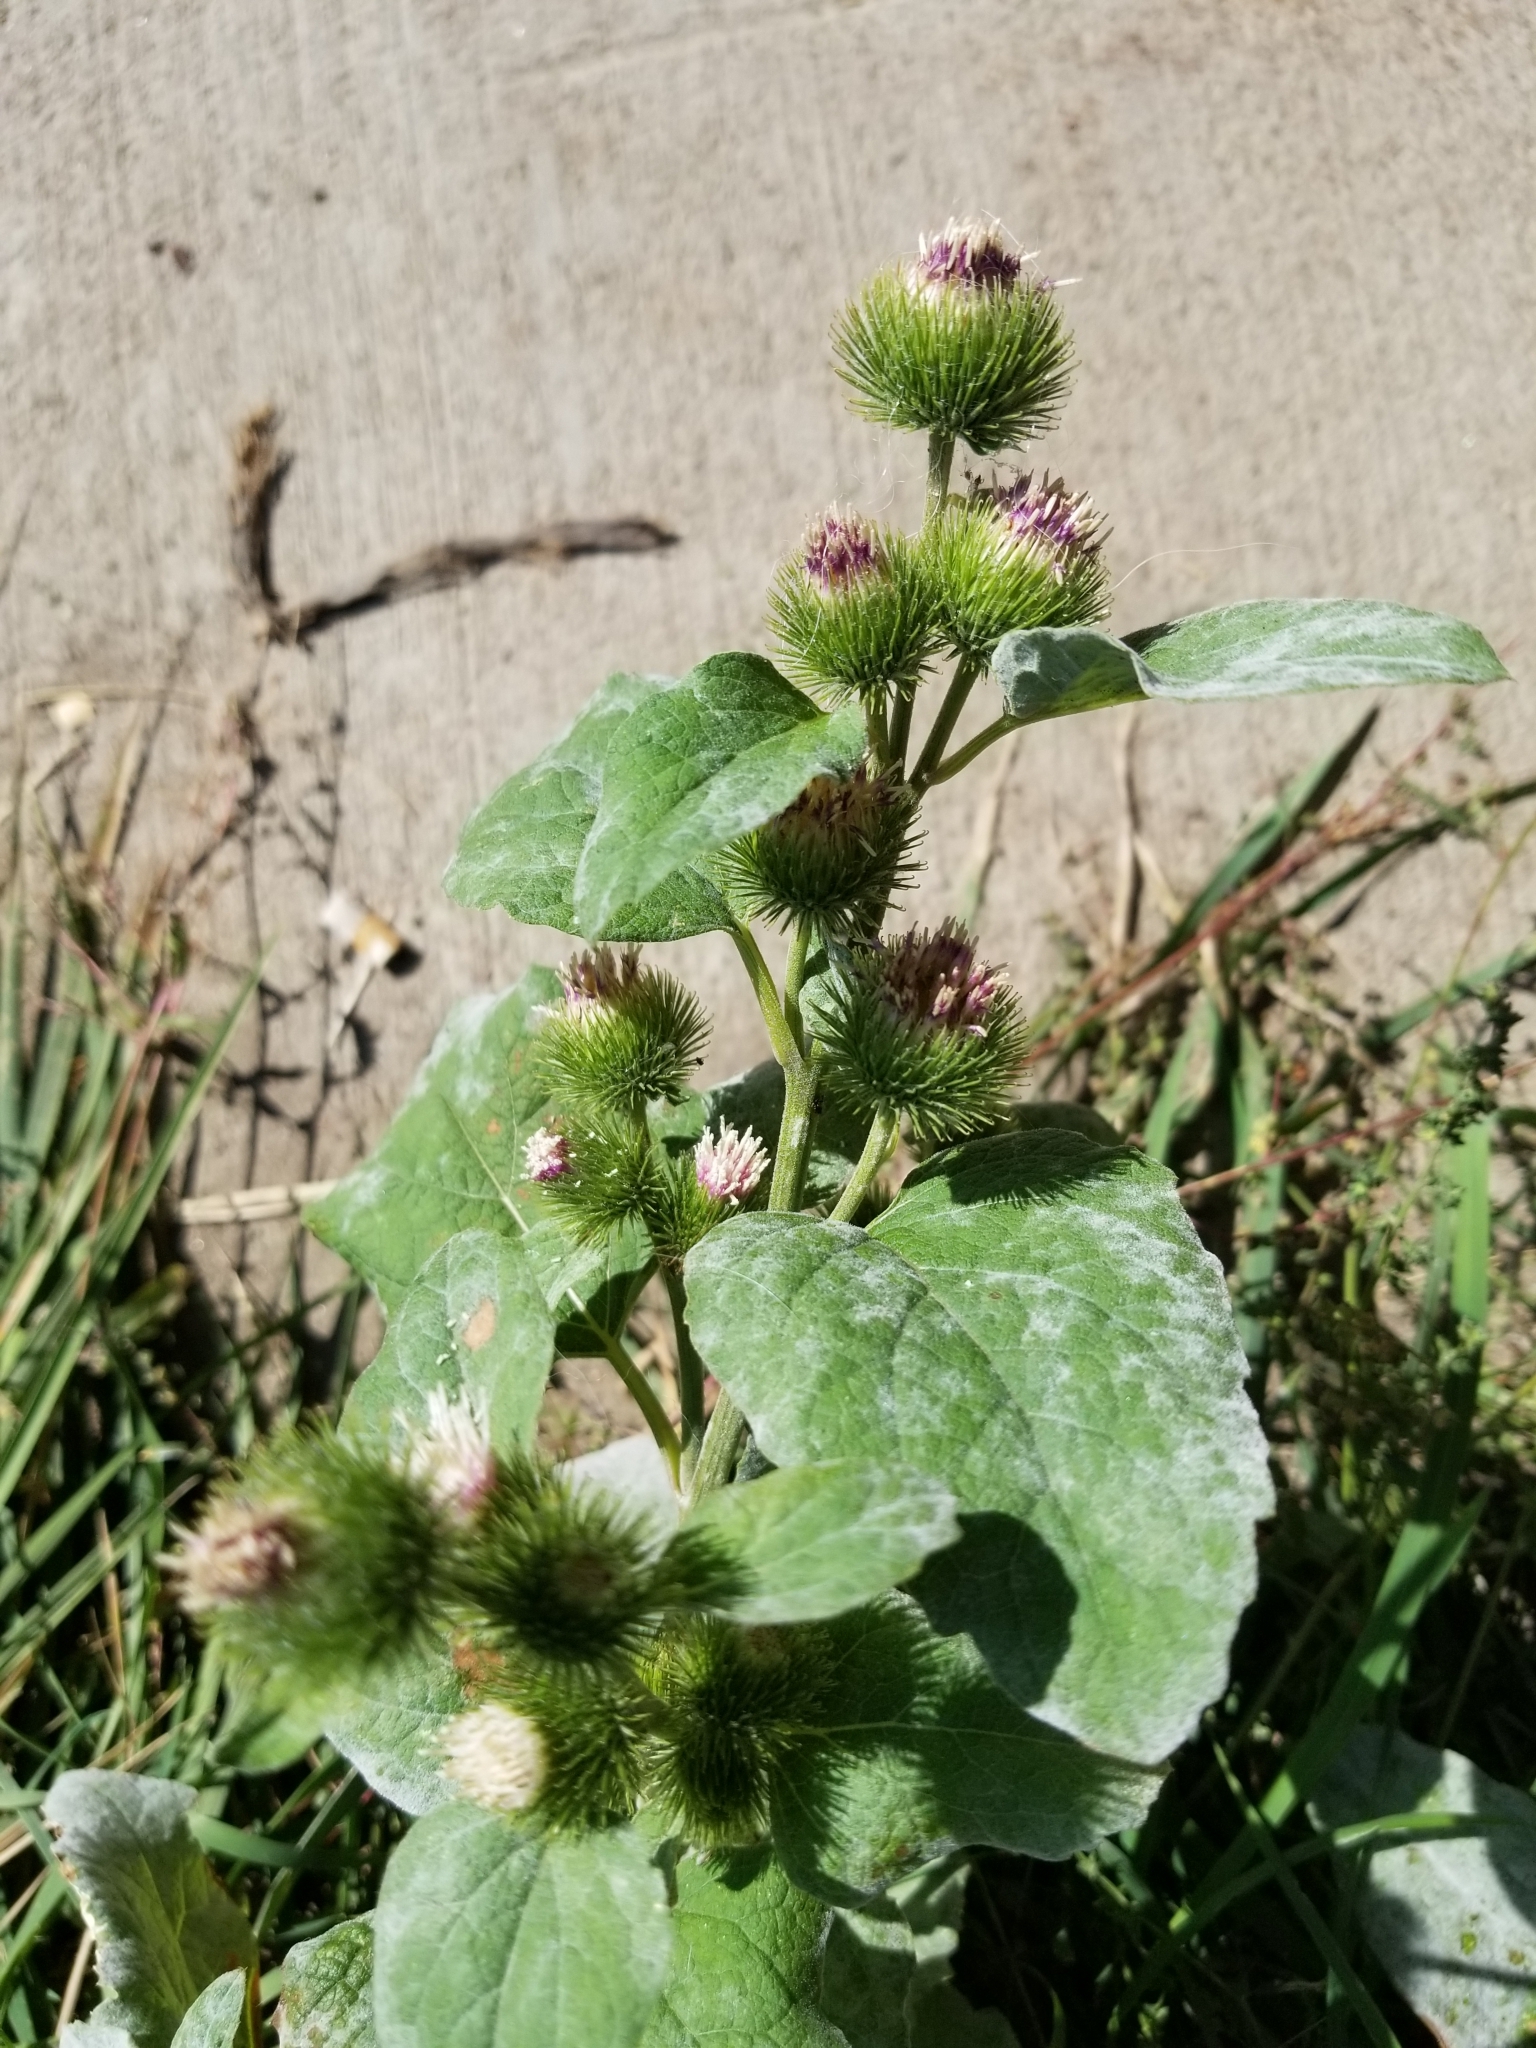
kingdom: Plantae
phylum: Tracheophyta
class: Magnoliopsida
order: Asterales
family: Asteraceae
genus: Arctium
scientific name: Arctium minus
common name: Lesser burdock
